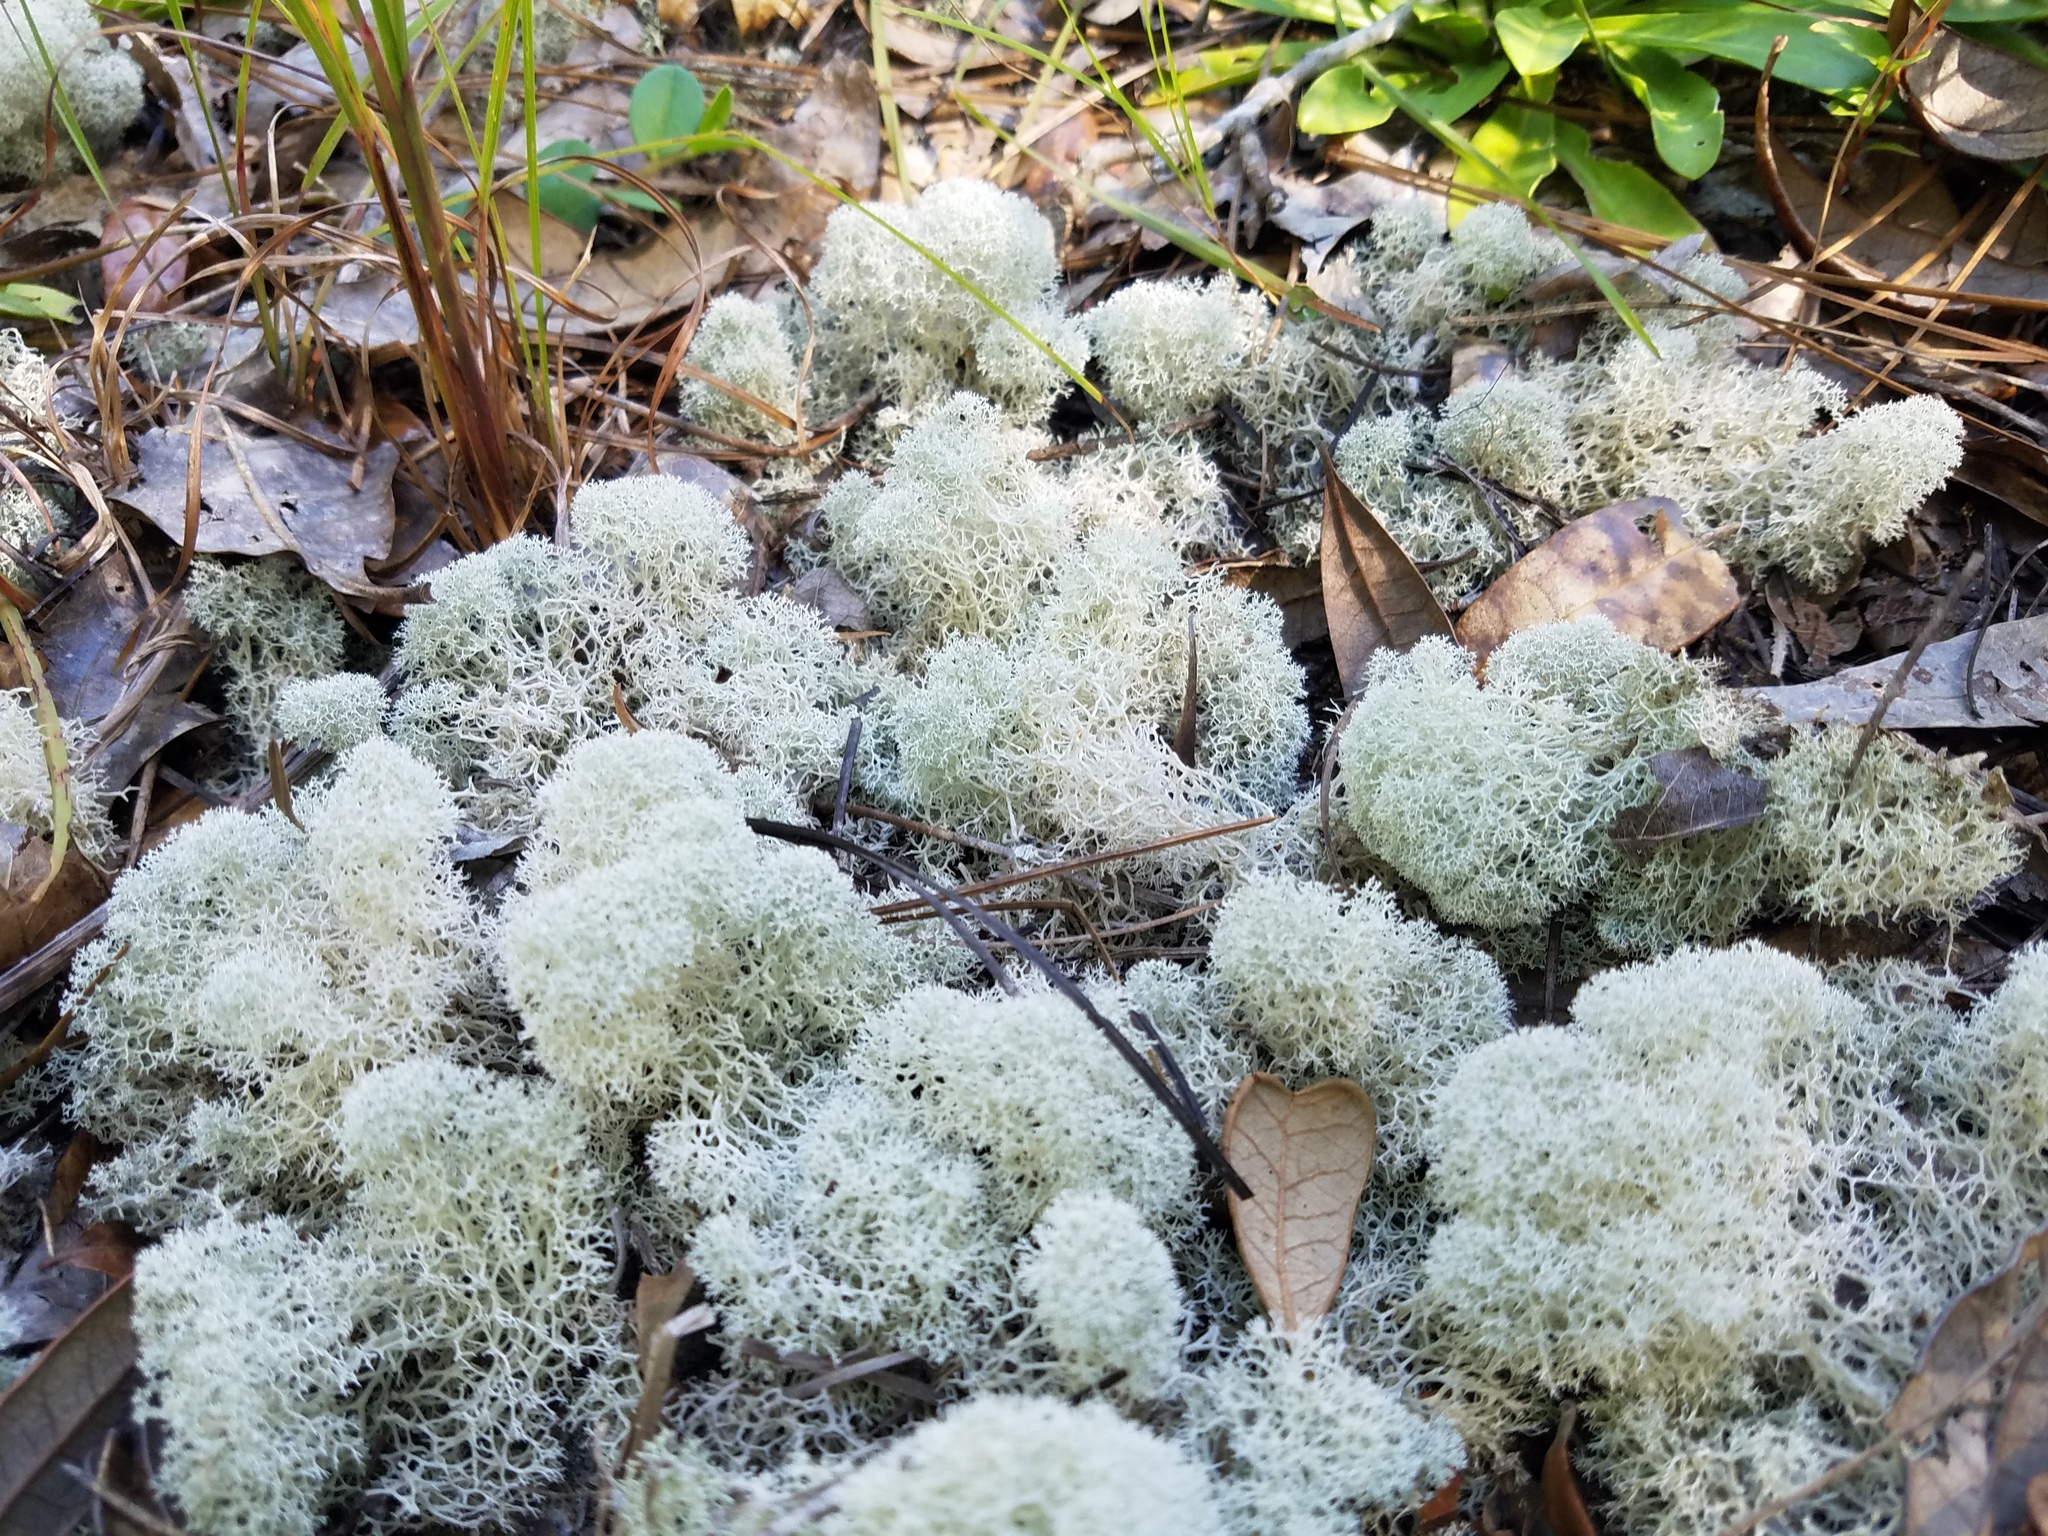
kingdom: Fungi
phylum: Ascomycota
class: Lecanoromycetes
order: Lecanorales
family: Cladoniaceae
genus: Cladonia
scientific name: Cladonia evansii
